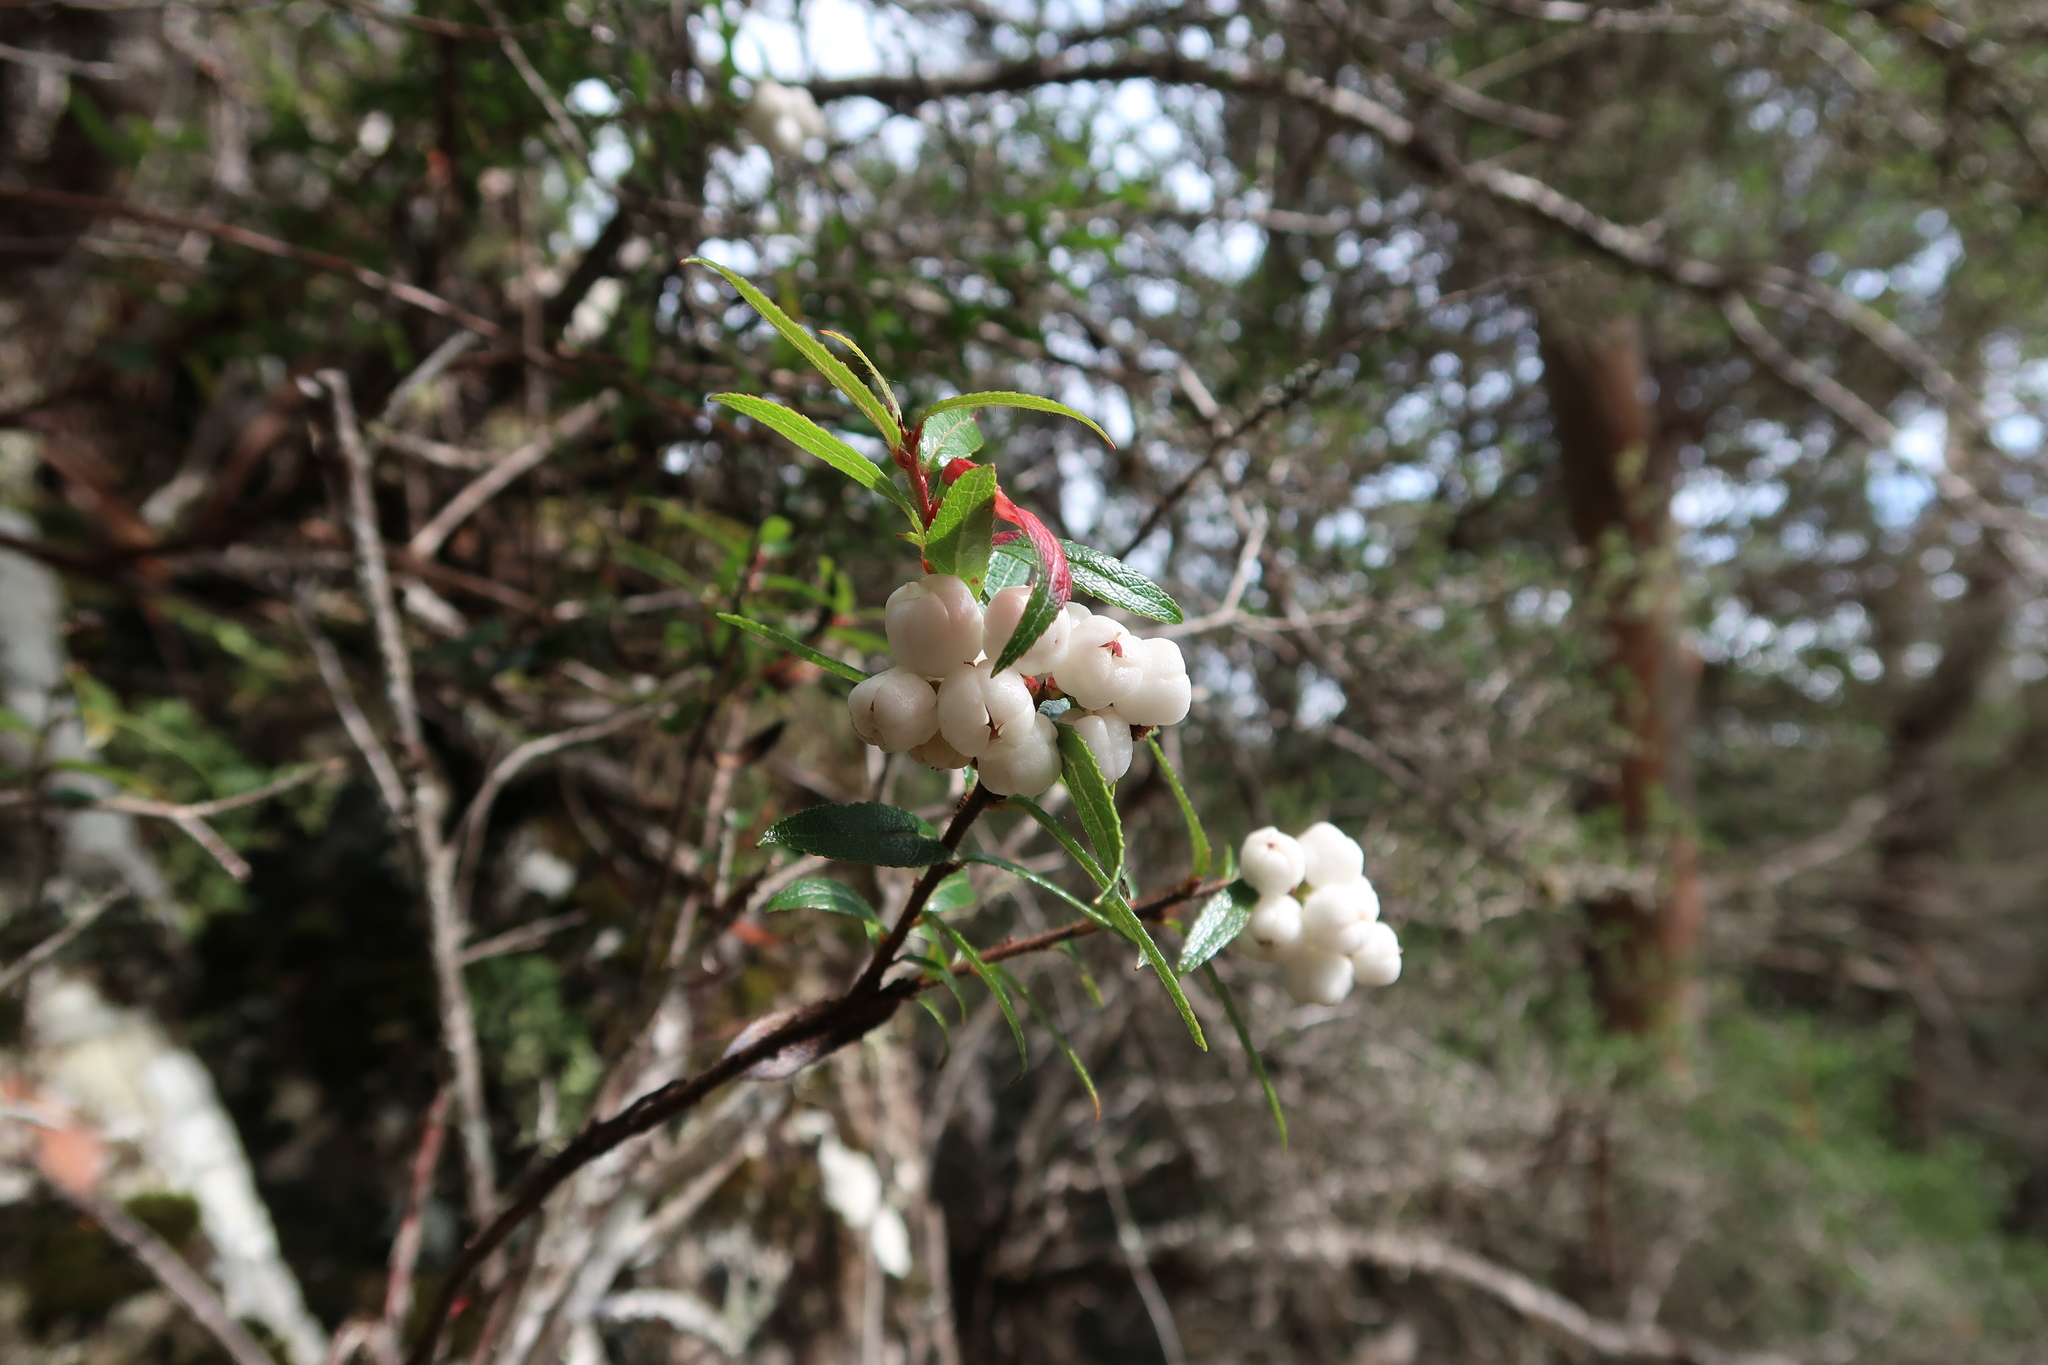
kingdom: Plantae
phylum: Tracheophyta
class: Magnoliopsida
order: Ericales
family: Ericaceae
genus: Gaultheria
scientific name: Gaultheria hispida
